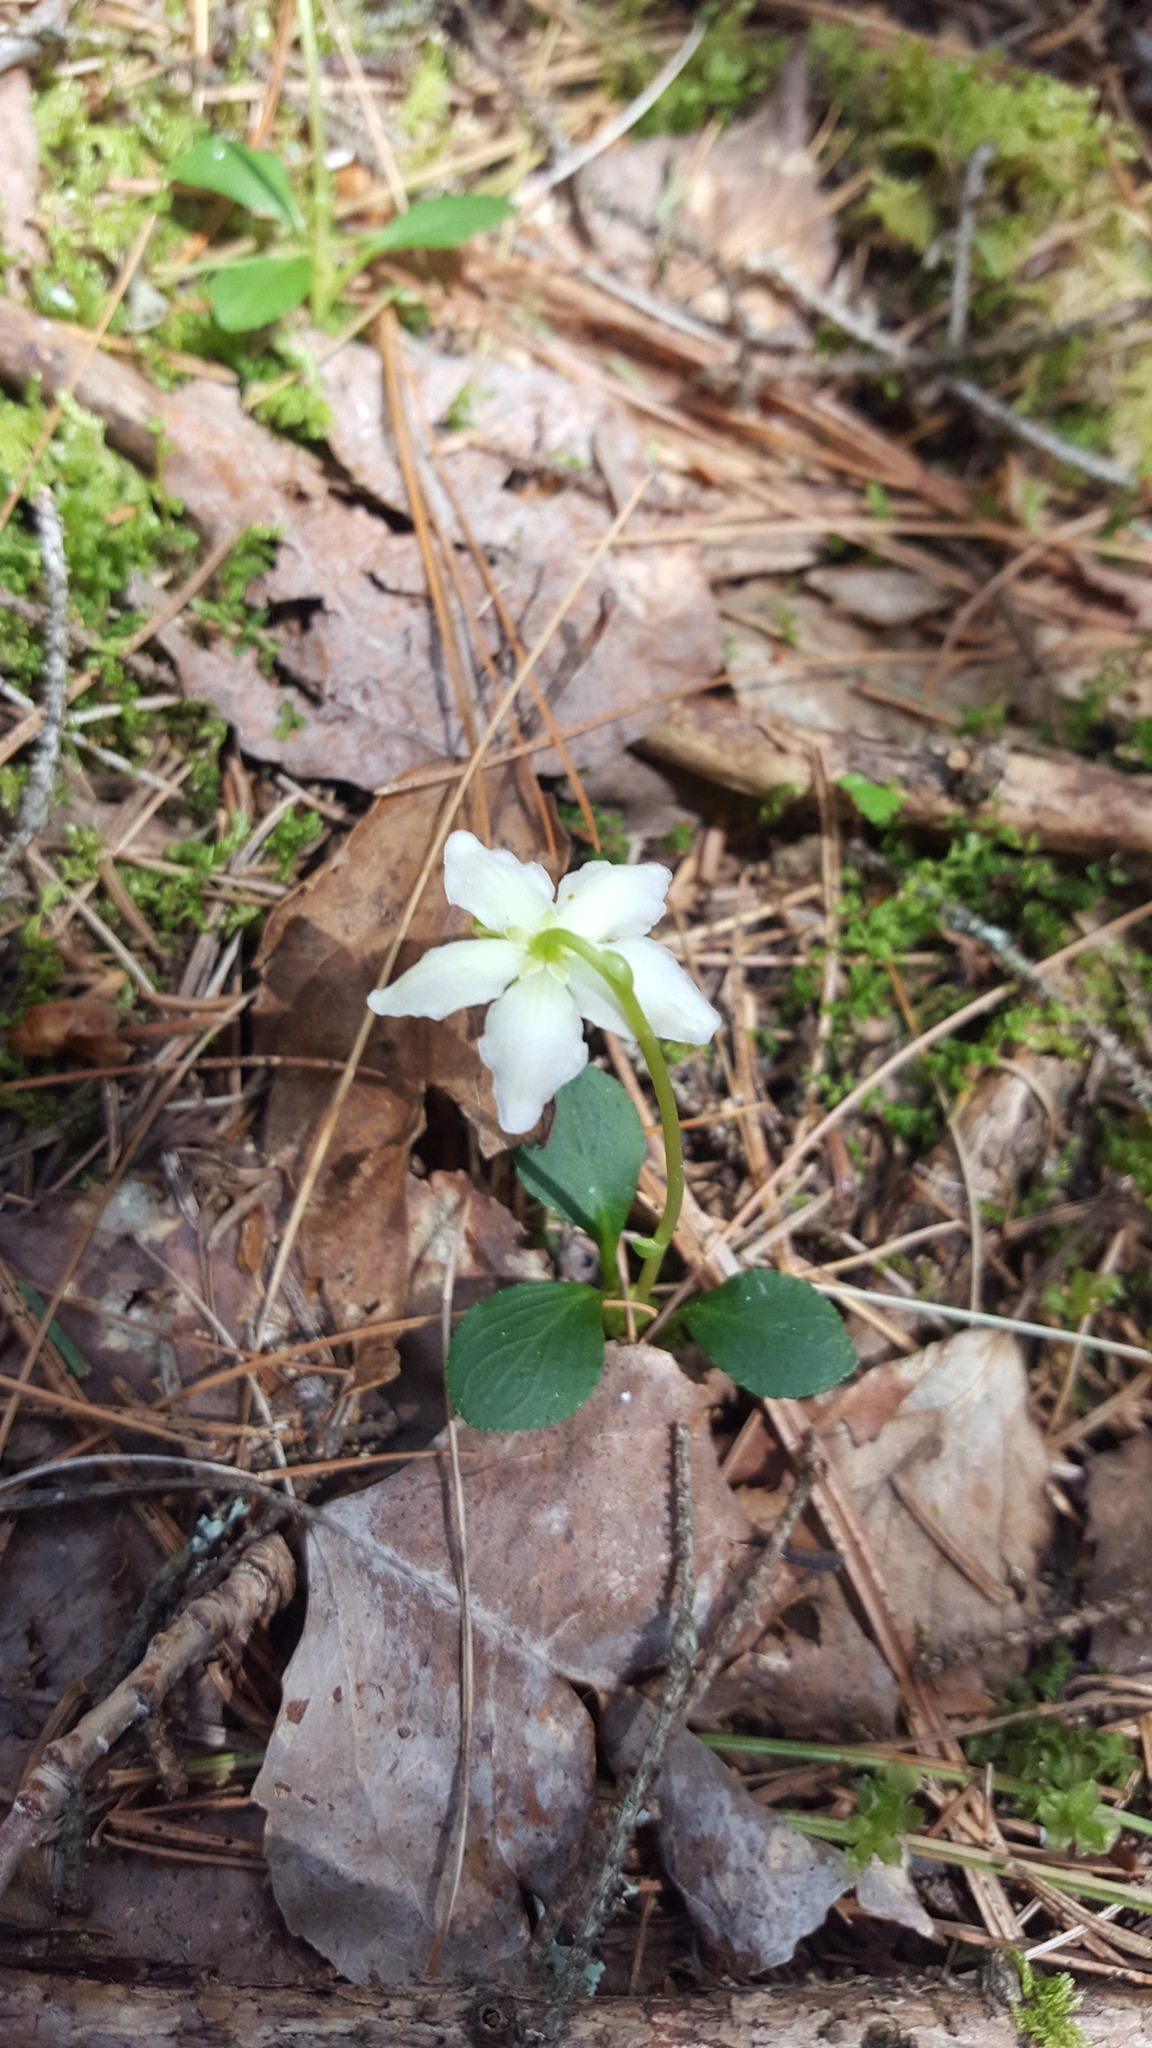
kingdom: Plantae
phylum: Tracheophyta
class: Magnoliopsida
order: Ericales
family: Ericaceae
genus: Moneses
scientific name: Moneses uniflora
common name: One-flowered wintergreen
